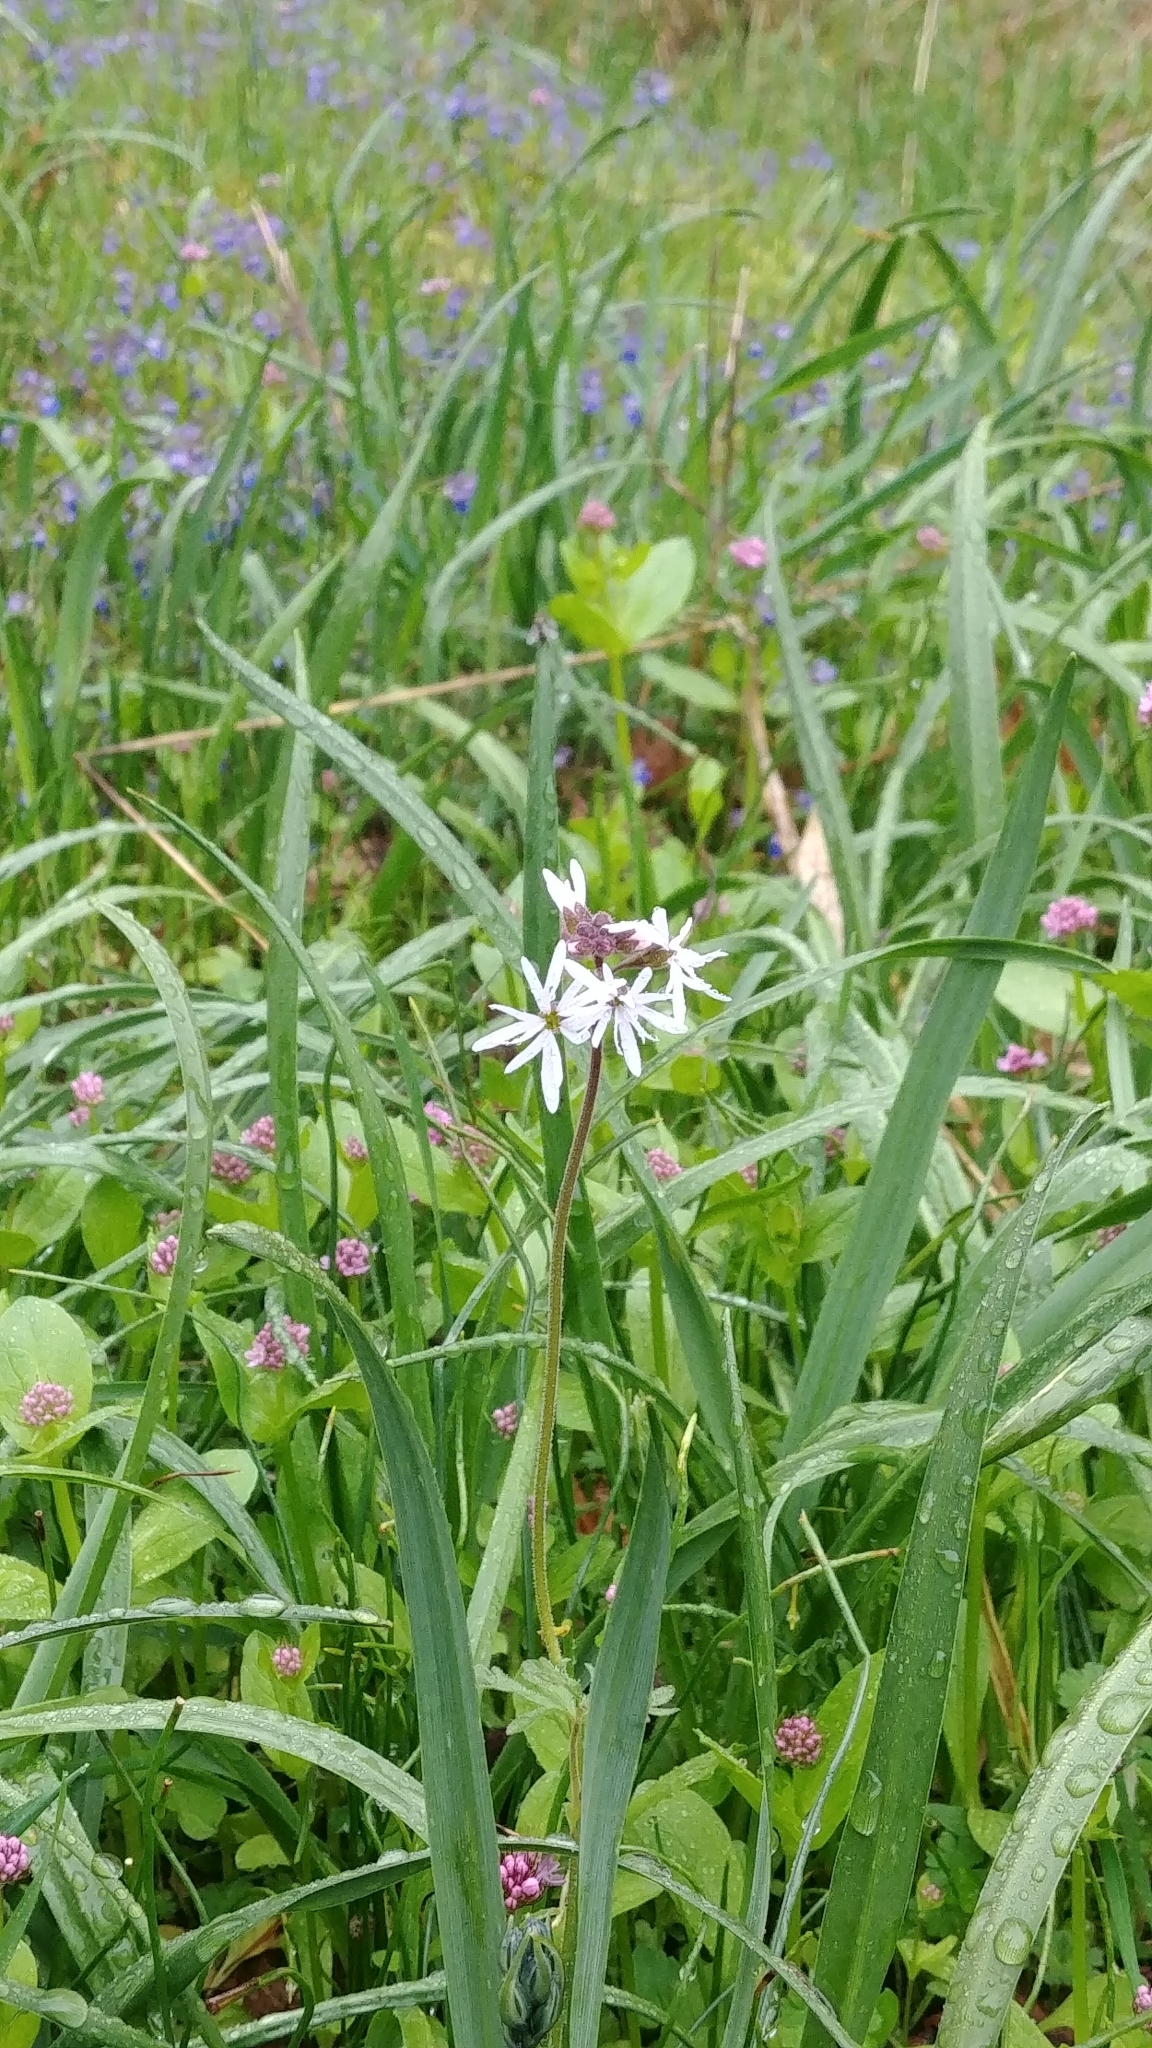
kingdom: Plantae
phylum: Tracheophyta
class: Magnoliopsida
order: Saxifragales
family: Saxifragaceae
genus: Lithophragma
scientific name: Lithophragma parviflorum
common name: Small-flowered fringe-cup
